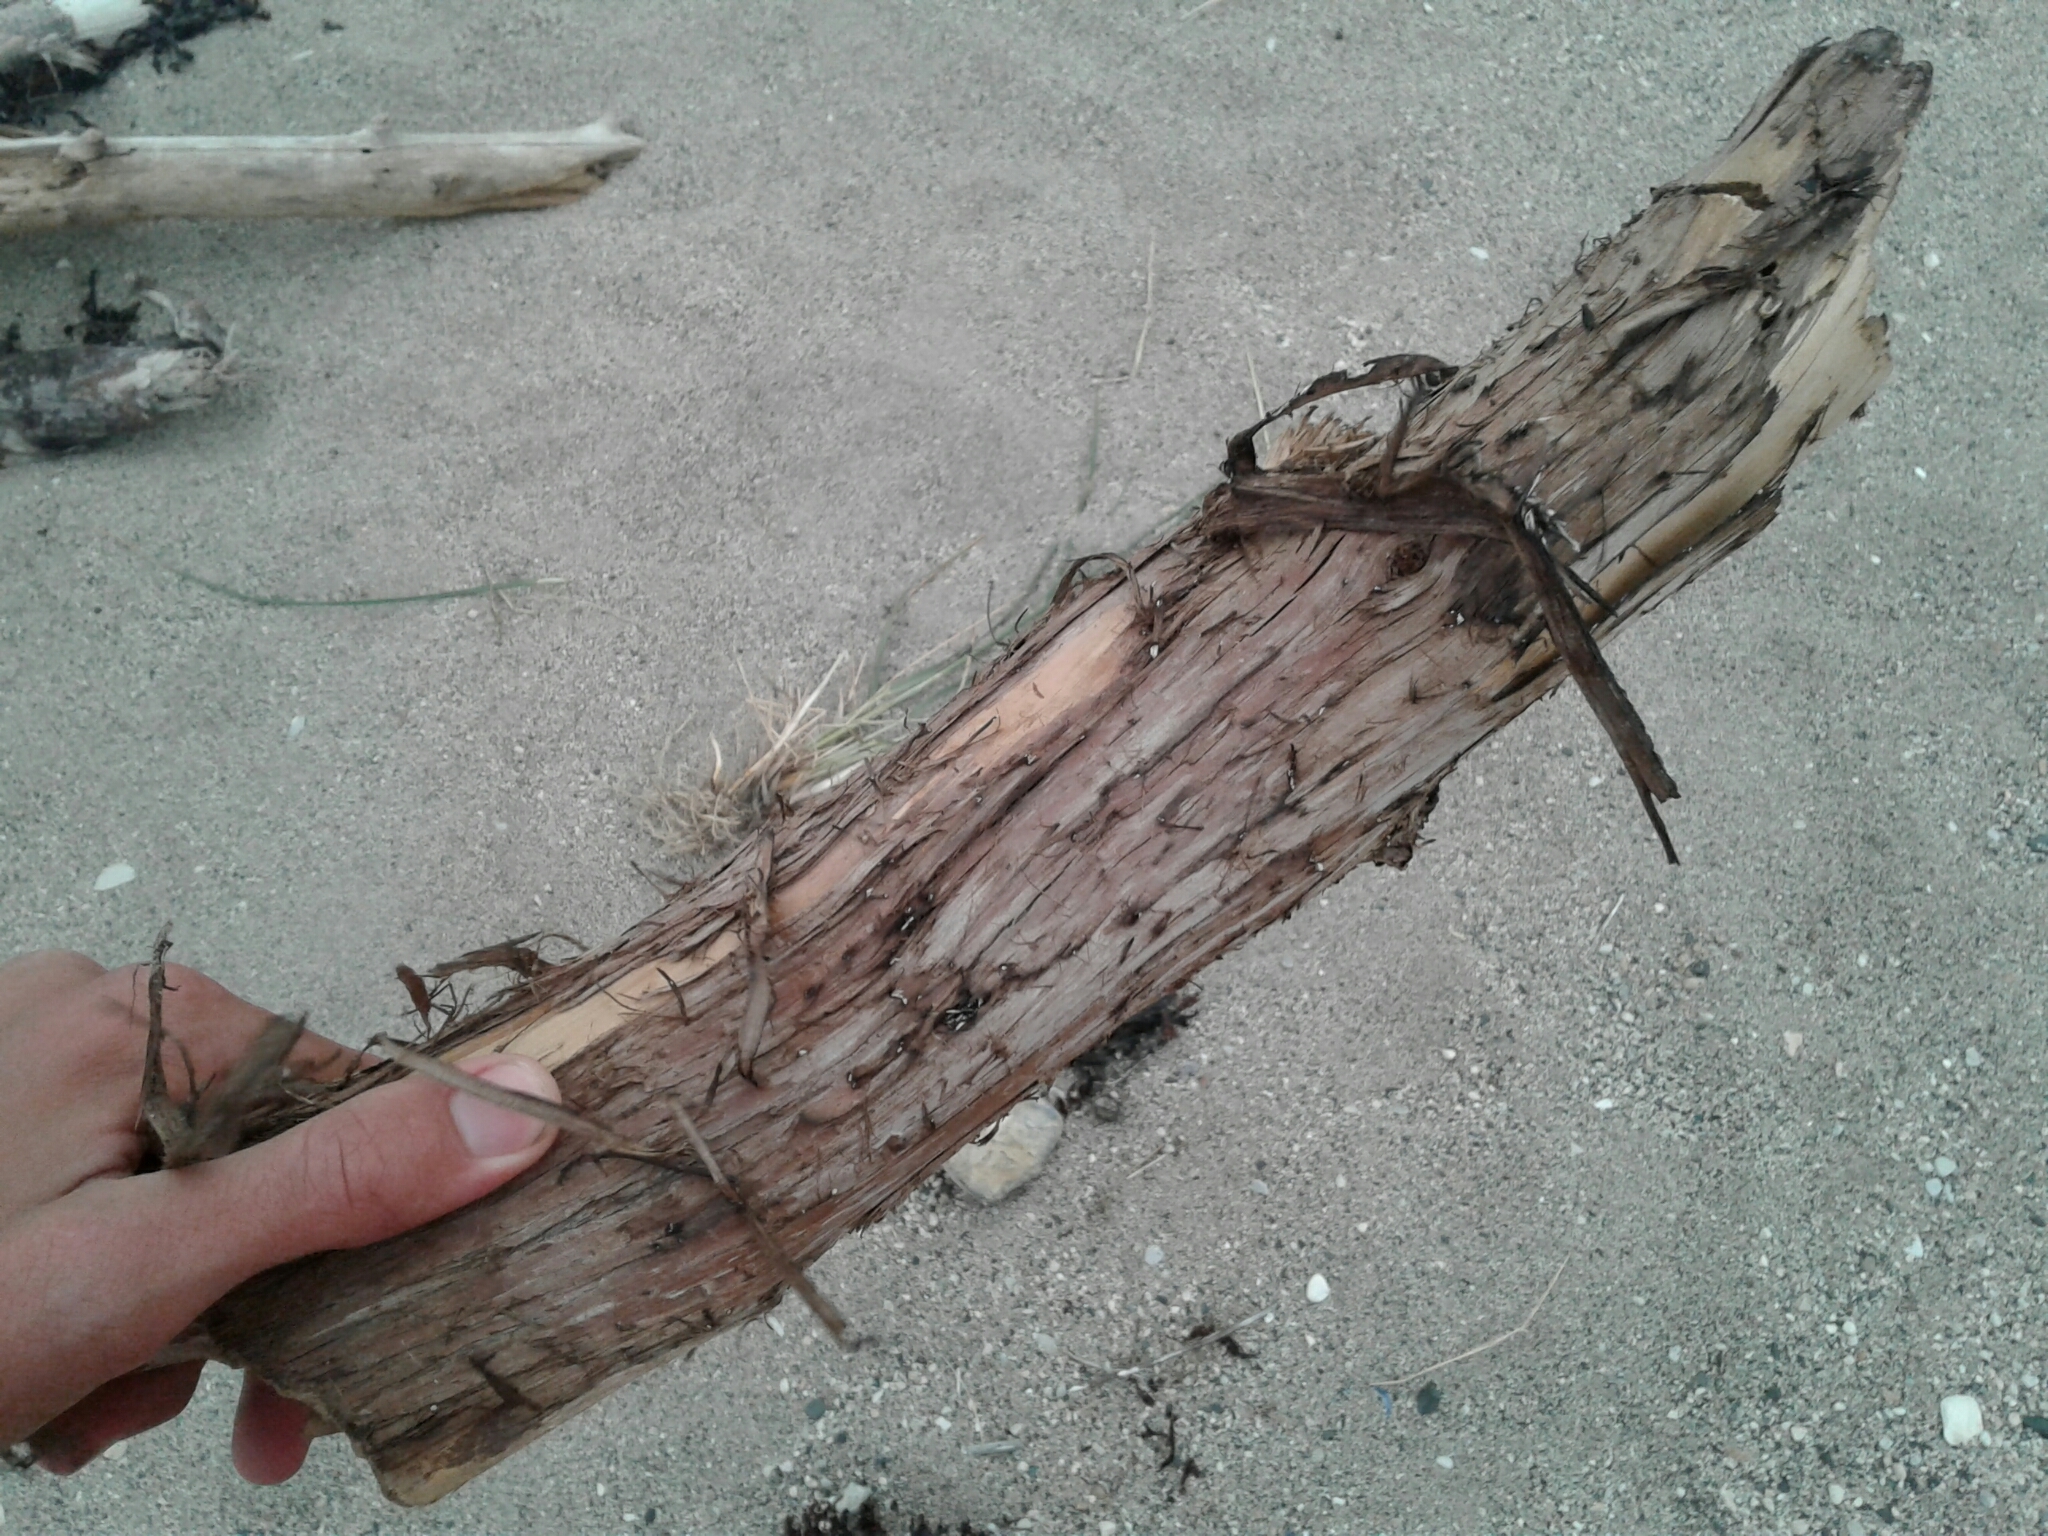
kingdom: Plantae
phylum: Tracheophyta
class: Pinopsida
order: Pinales
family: Cupressaceae
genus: Thuja
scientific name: Thuja occidentalis
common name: Northern white-cedar
